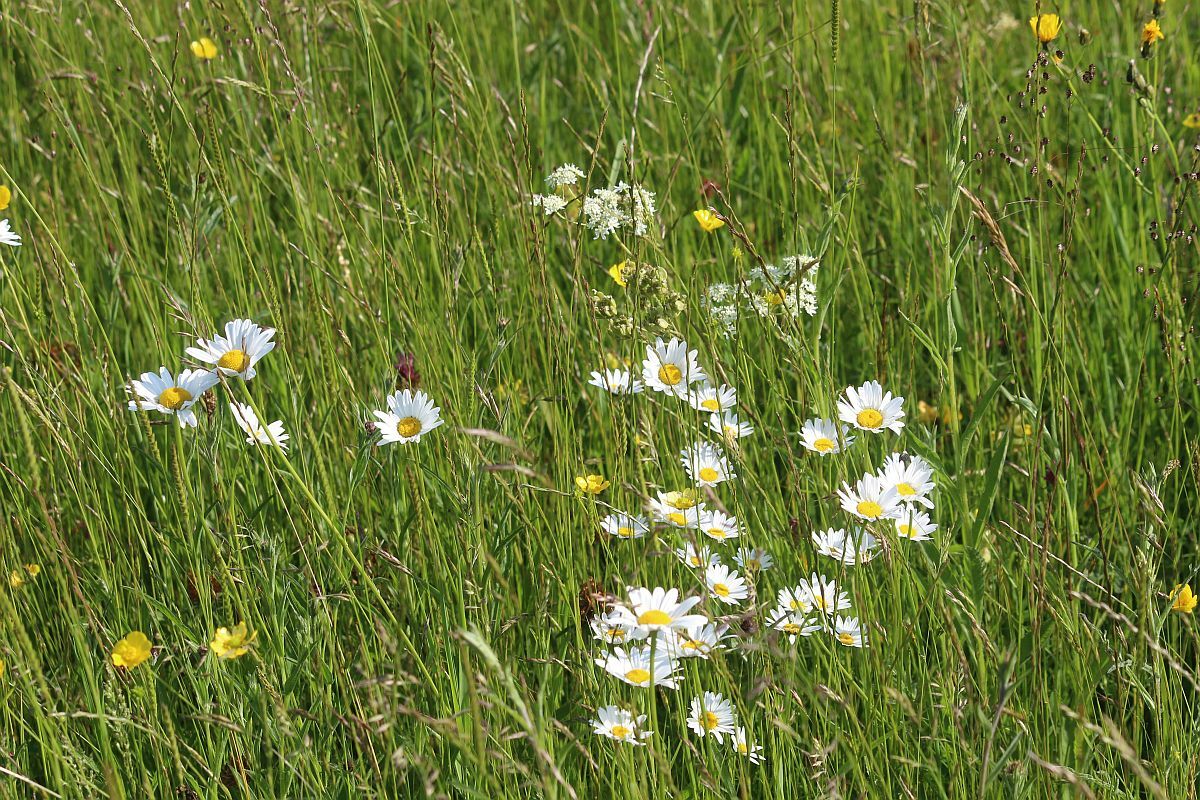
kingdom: Plantae
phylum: Tracheophyta
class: Magnoliopsida
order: Asterales
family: Asteraceae
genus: Leucanthemum
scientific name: Leucanthemum vulgare
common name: Oxeye daisy
